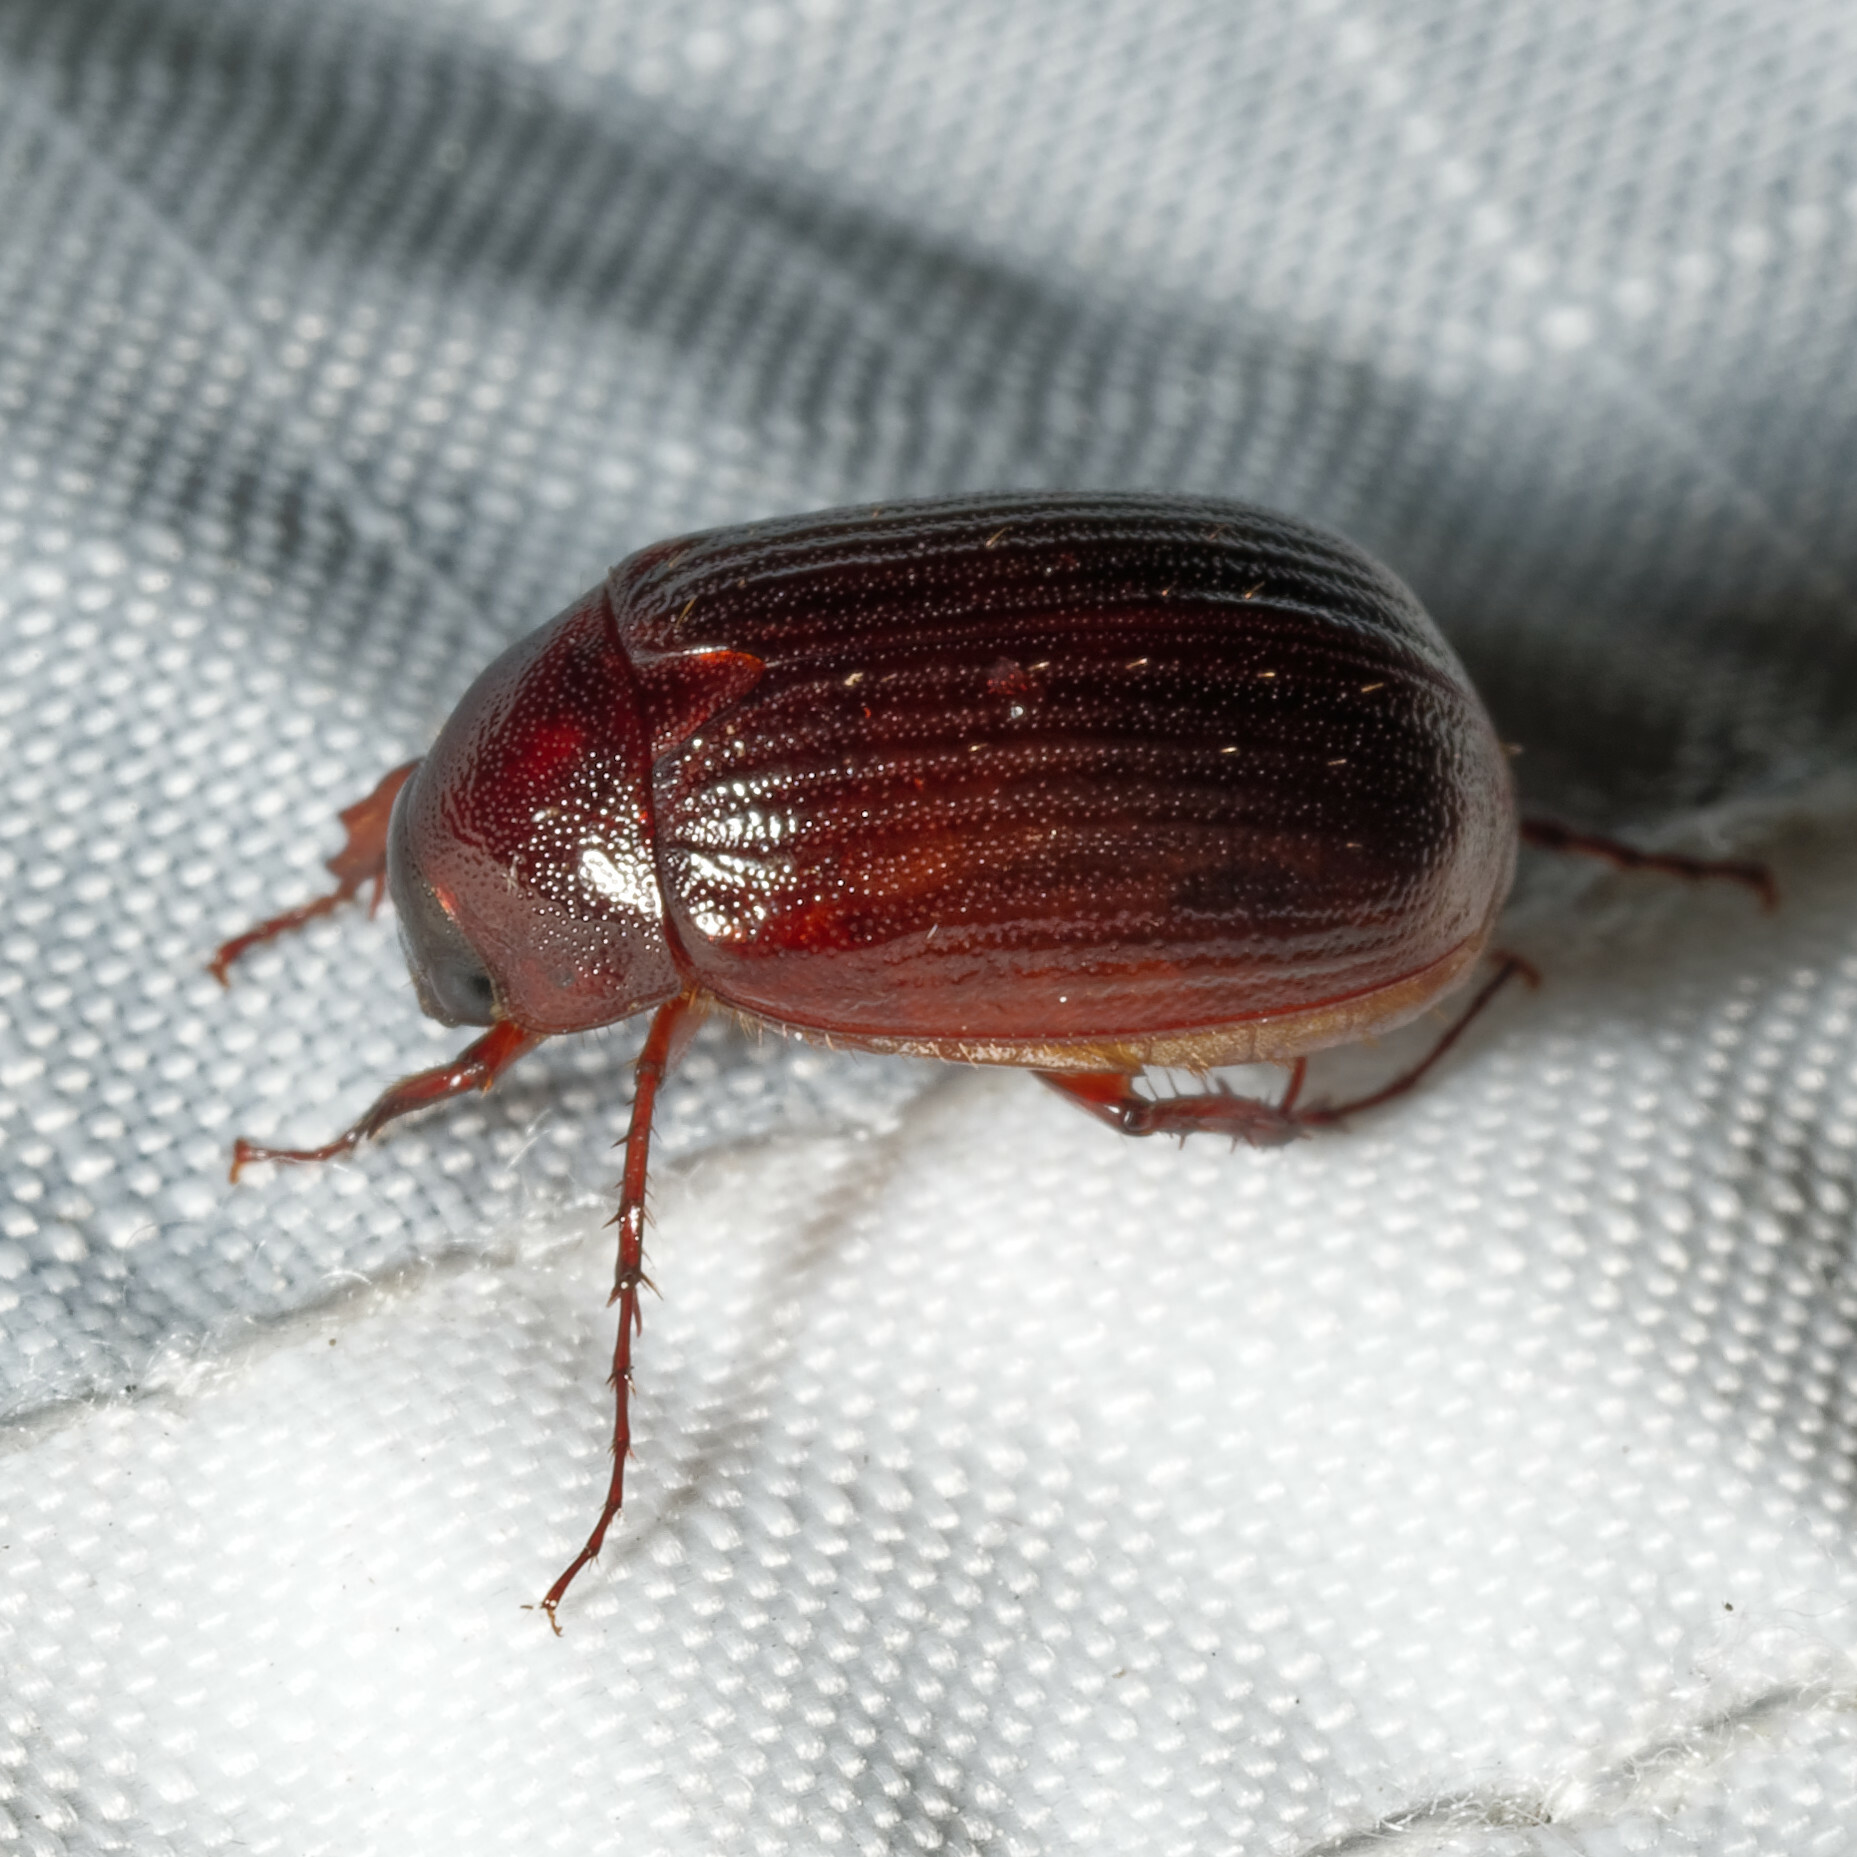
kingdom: Animalia
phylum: Arthropoda
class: Insecta
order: Coleoptera
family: Scarabaeidae
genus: Maladera
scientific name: Maladera formosae
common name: Asiatic garden beetle
